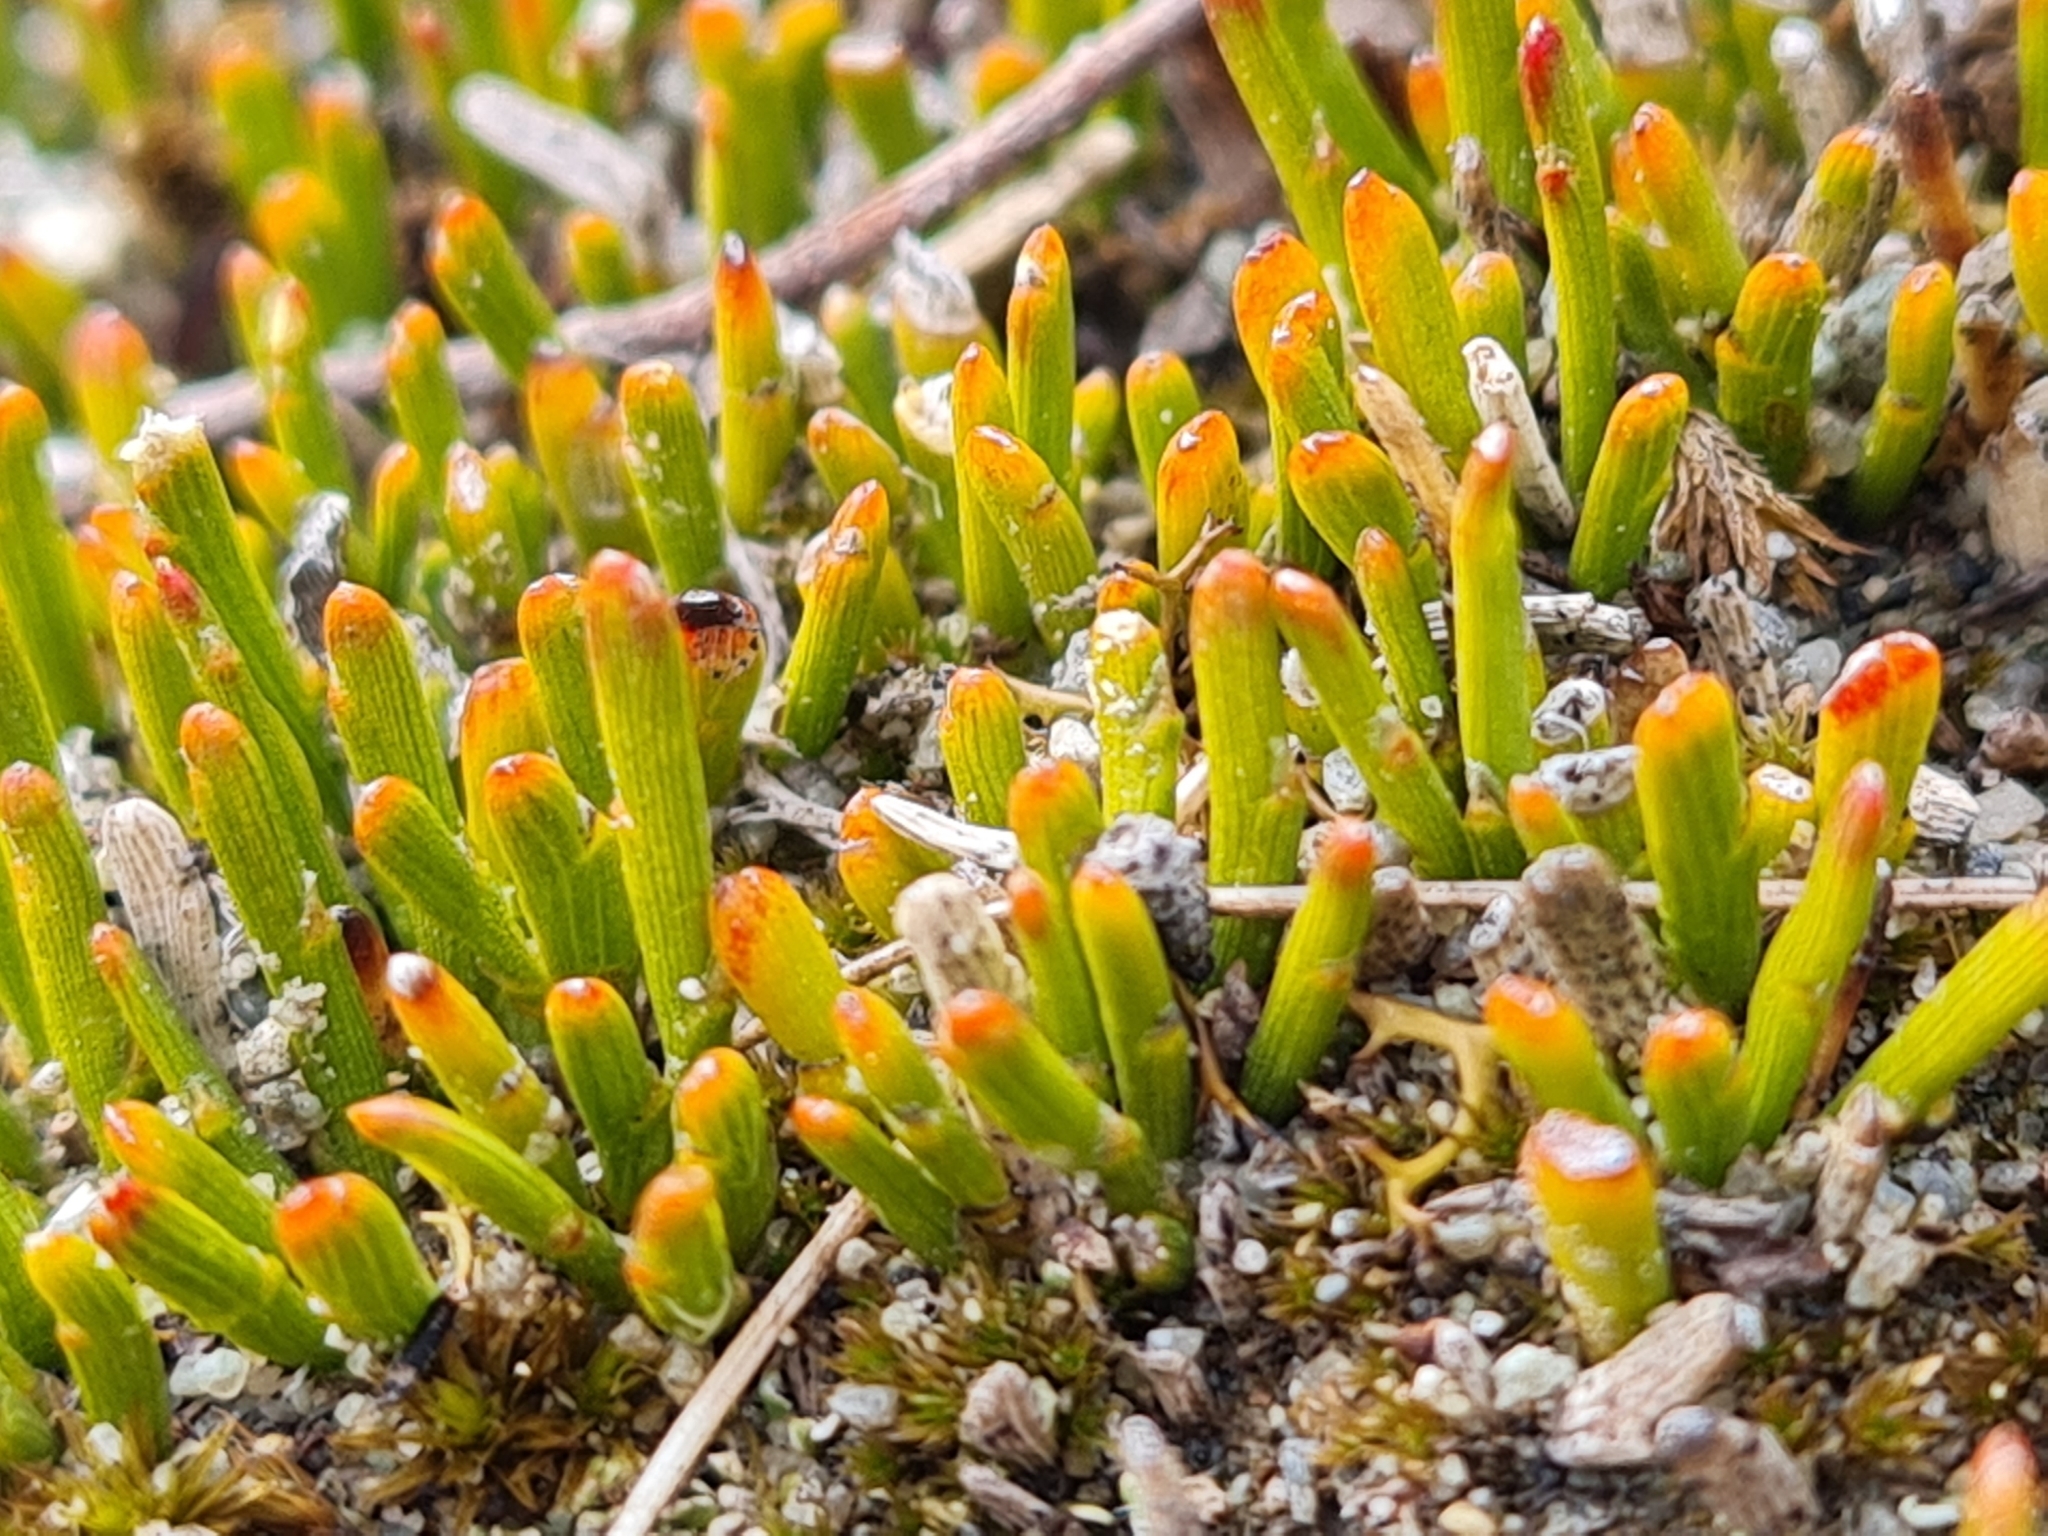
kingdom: Plantae
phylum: Tracheophyta
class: Magnoliopsida
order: Fabales
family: Fabaceae
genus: Carmichaelia
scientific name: Carmichaelia nana
